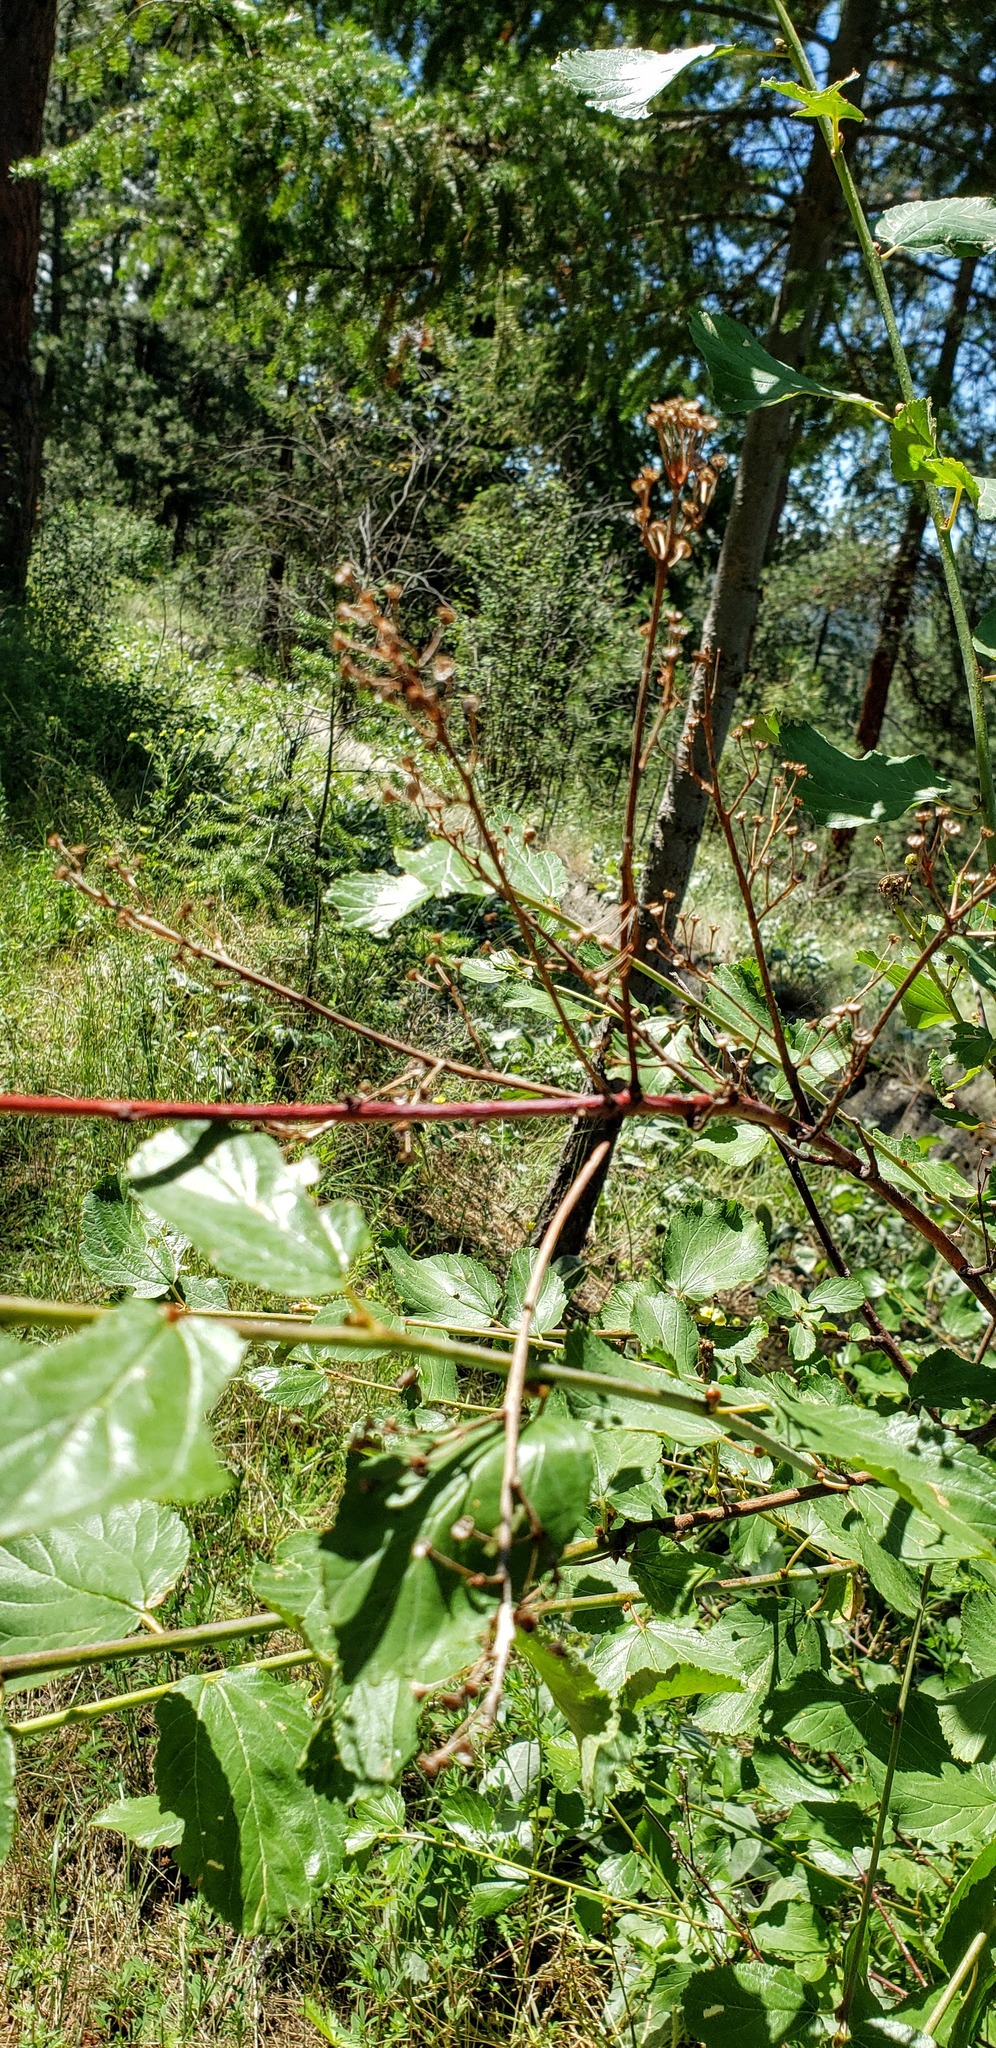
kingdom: Plantae
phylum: Tracheophyta
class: Magnoliopsida
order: Rosales
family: Rhamnaceae
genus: Ceanothus
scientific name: Ceanothus sanguineus
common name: Teatree
